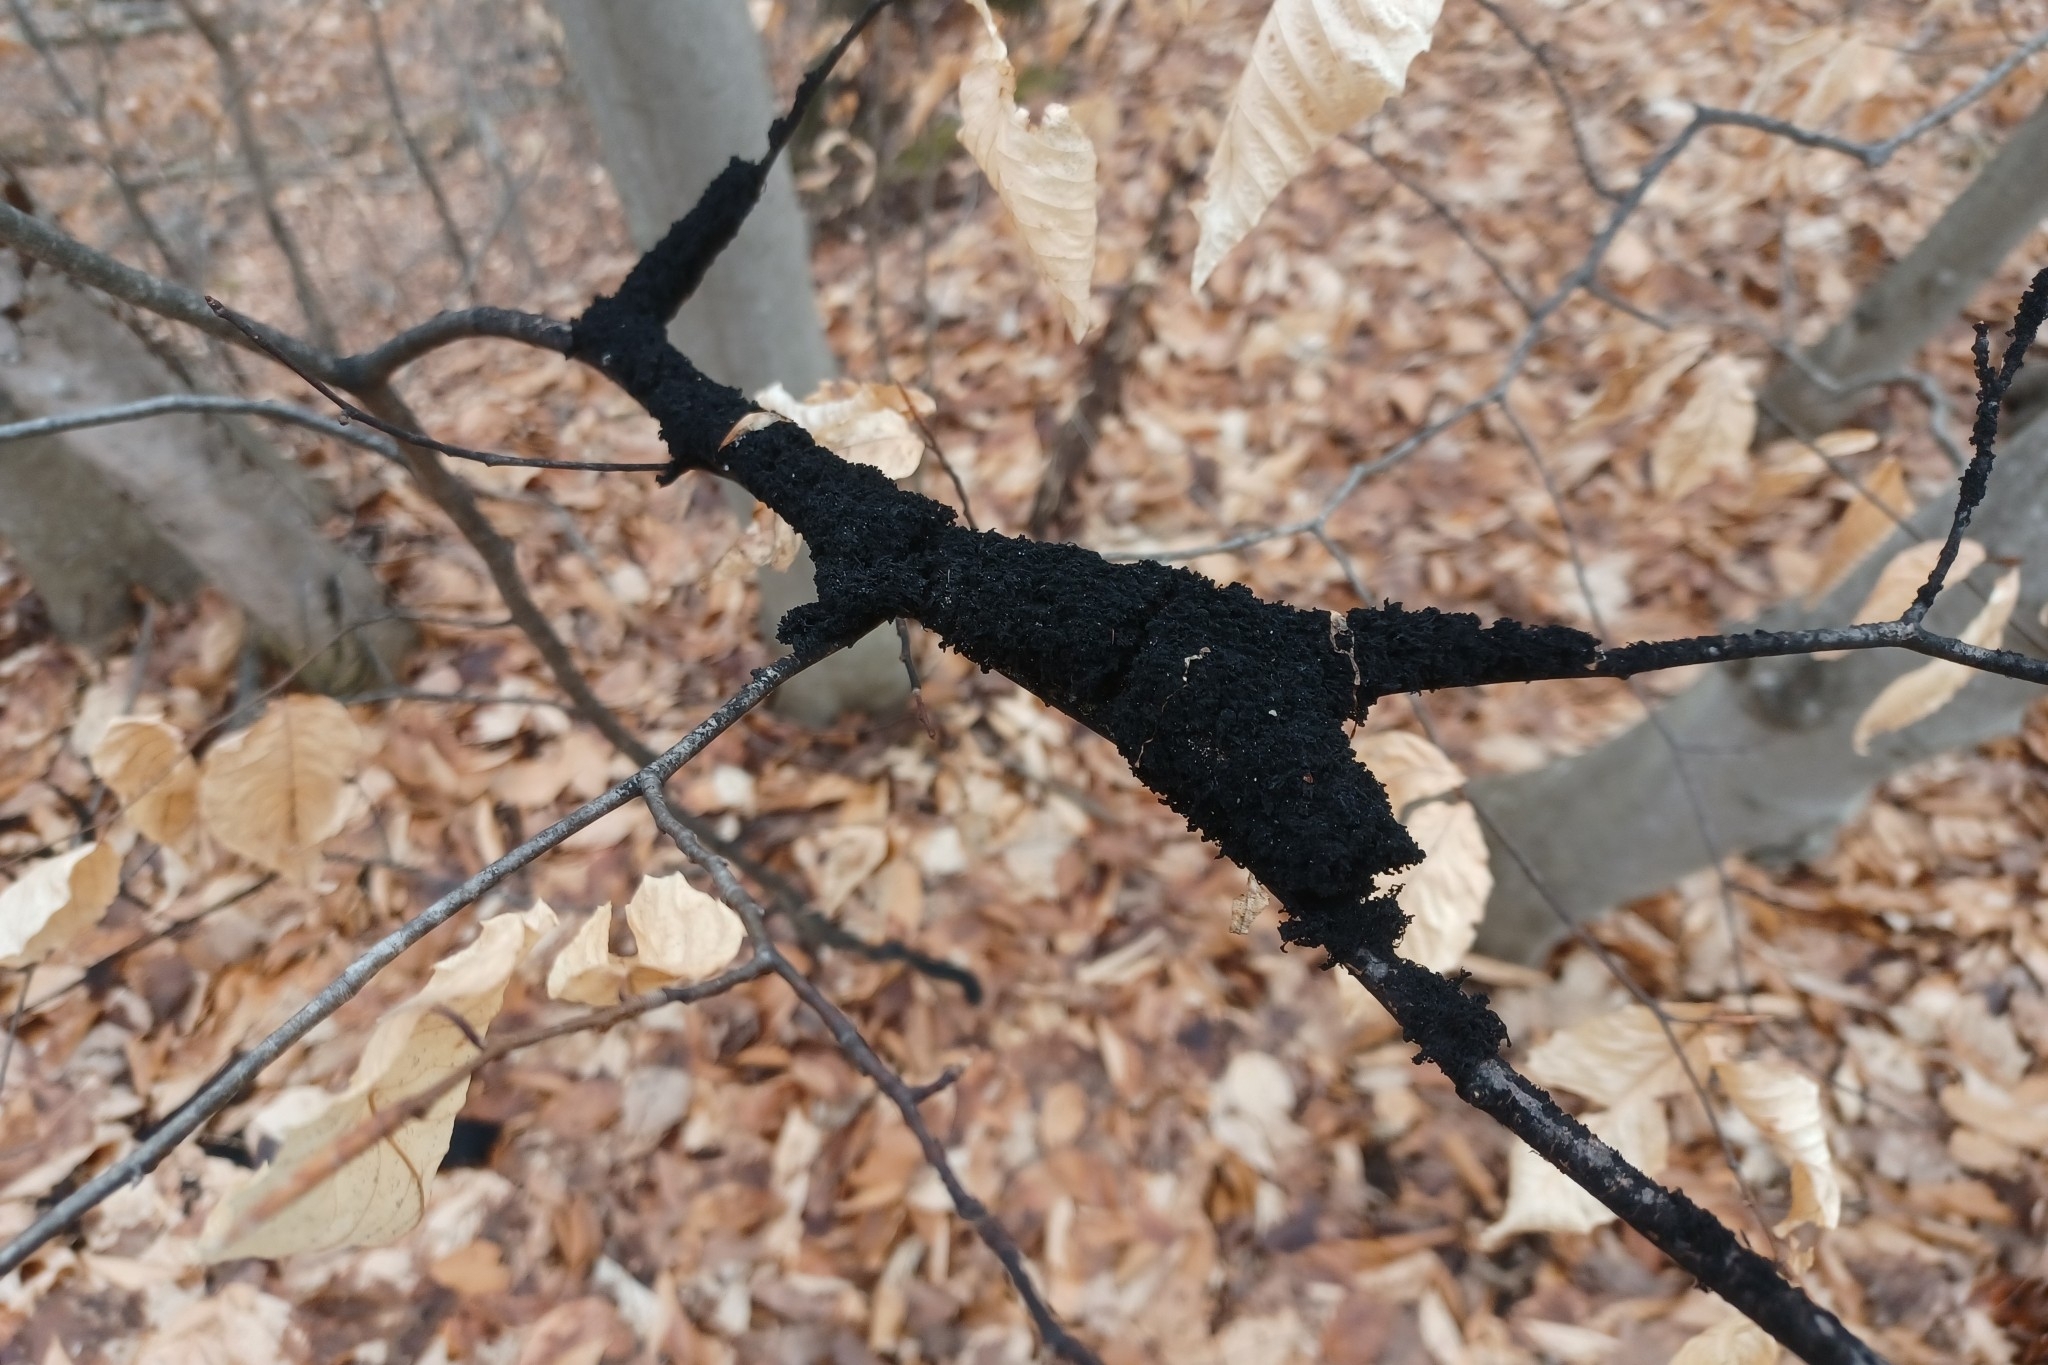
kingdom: Fungi
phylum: Ascomycota
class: Dothideomycetes
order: Capnodiales
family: Capnodiaceae
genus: Scorias
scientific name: Scorias spongiosa
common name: Black sooty mold
